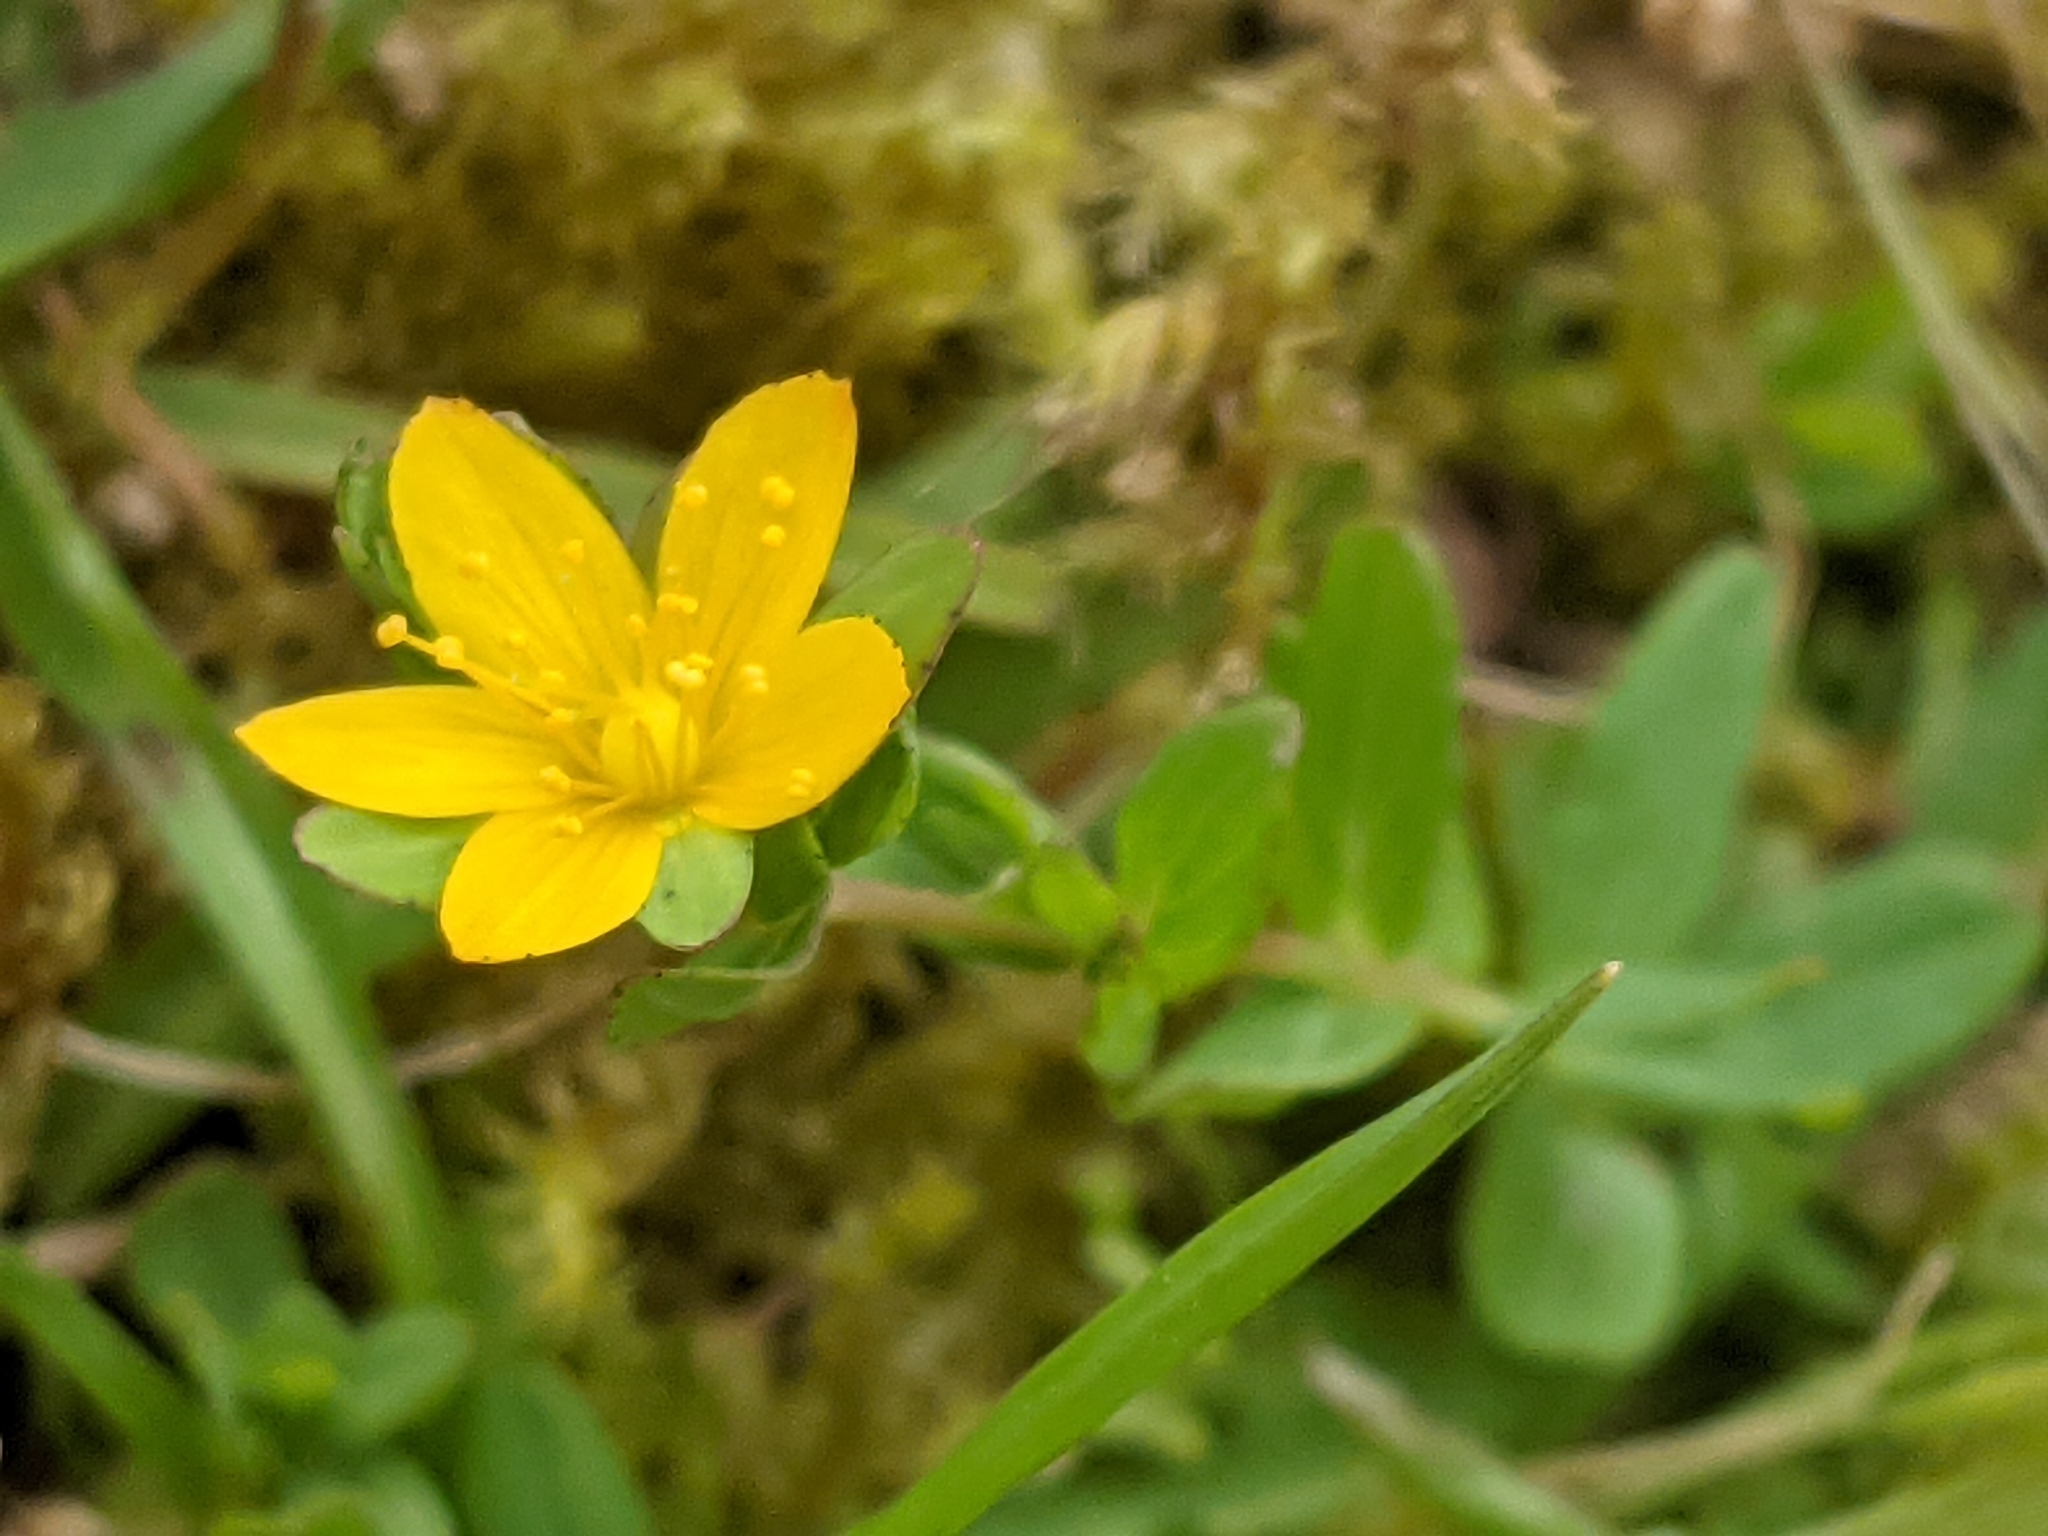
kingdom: Plantae
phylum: Tracheophyta
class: Magnoliopsida
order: Malpighiales
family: Hypericaceae
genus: Hypericum
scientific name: Hypericum humifusum
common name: Trailing st. john's-wort
